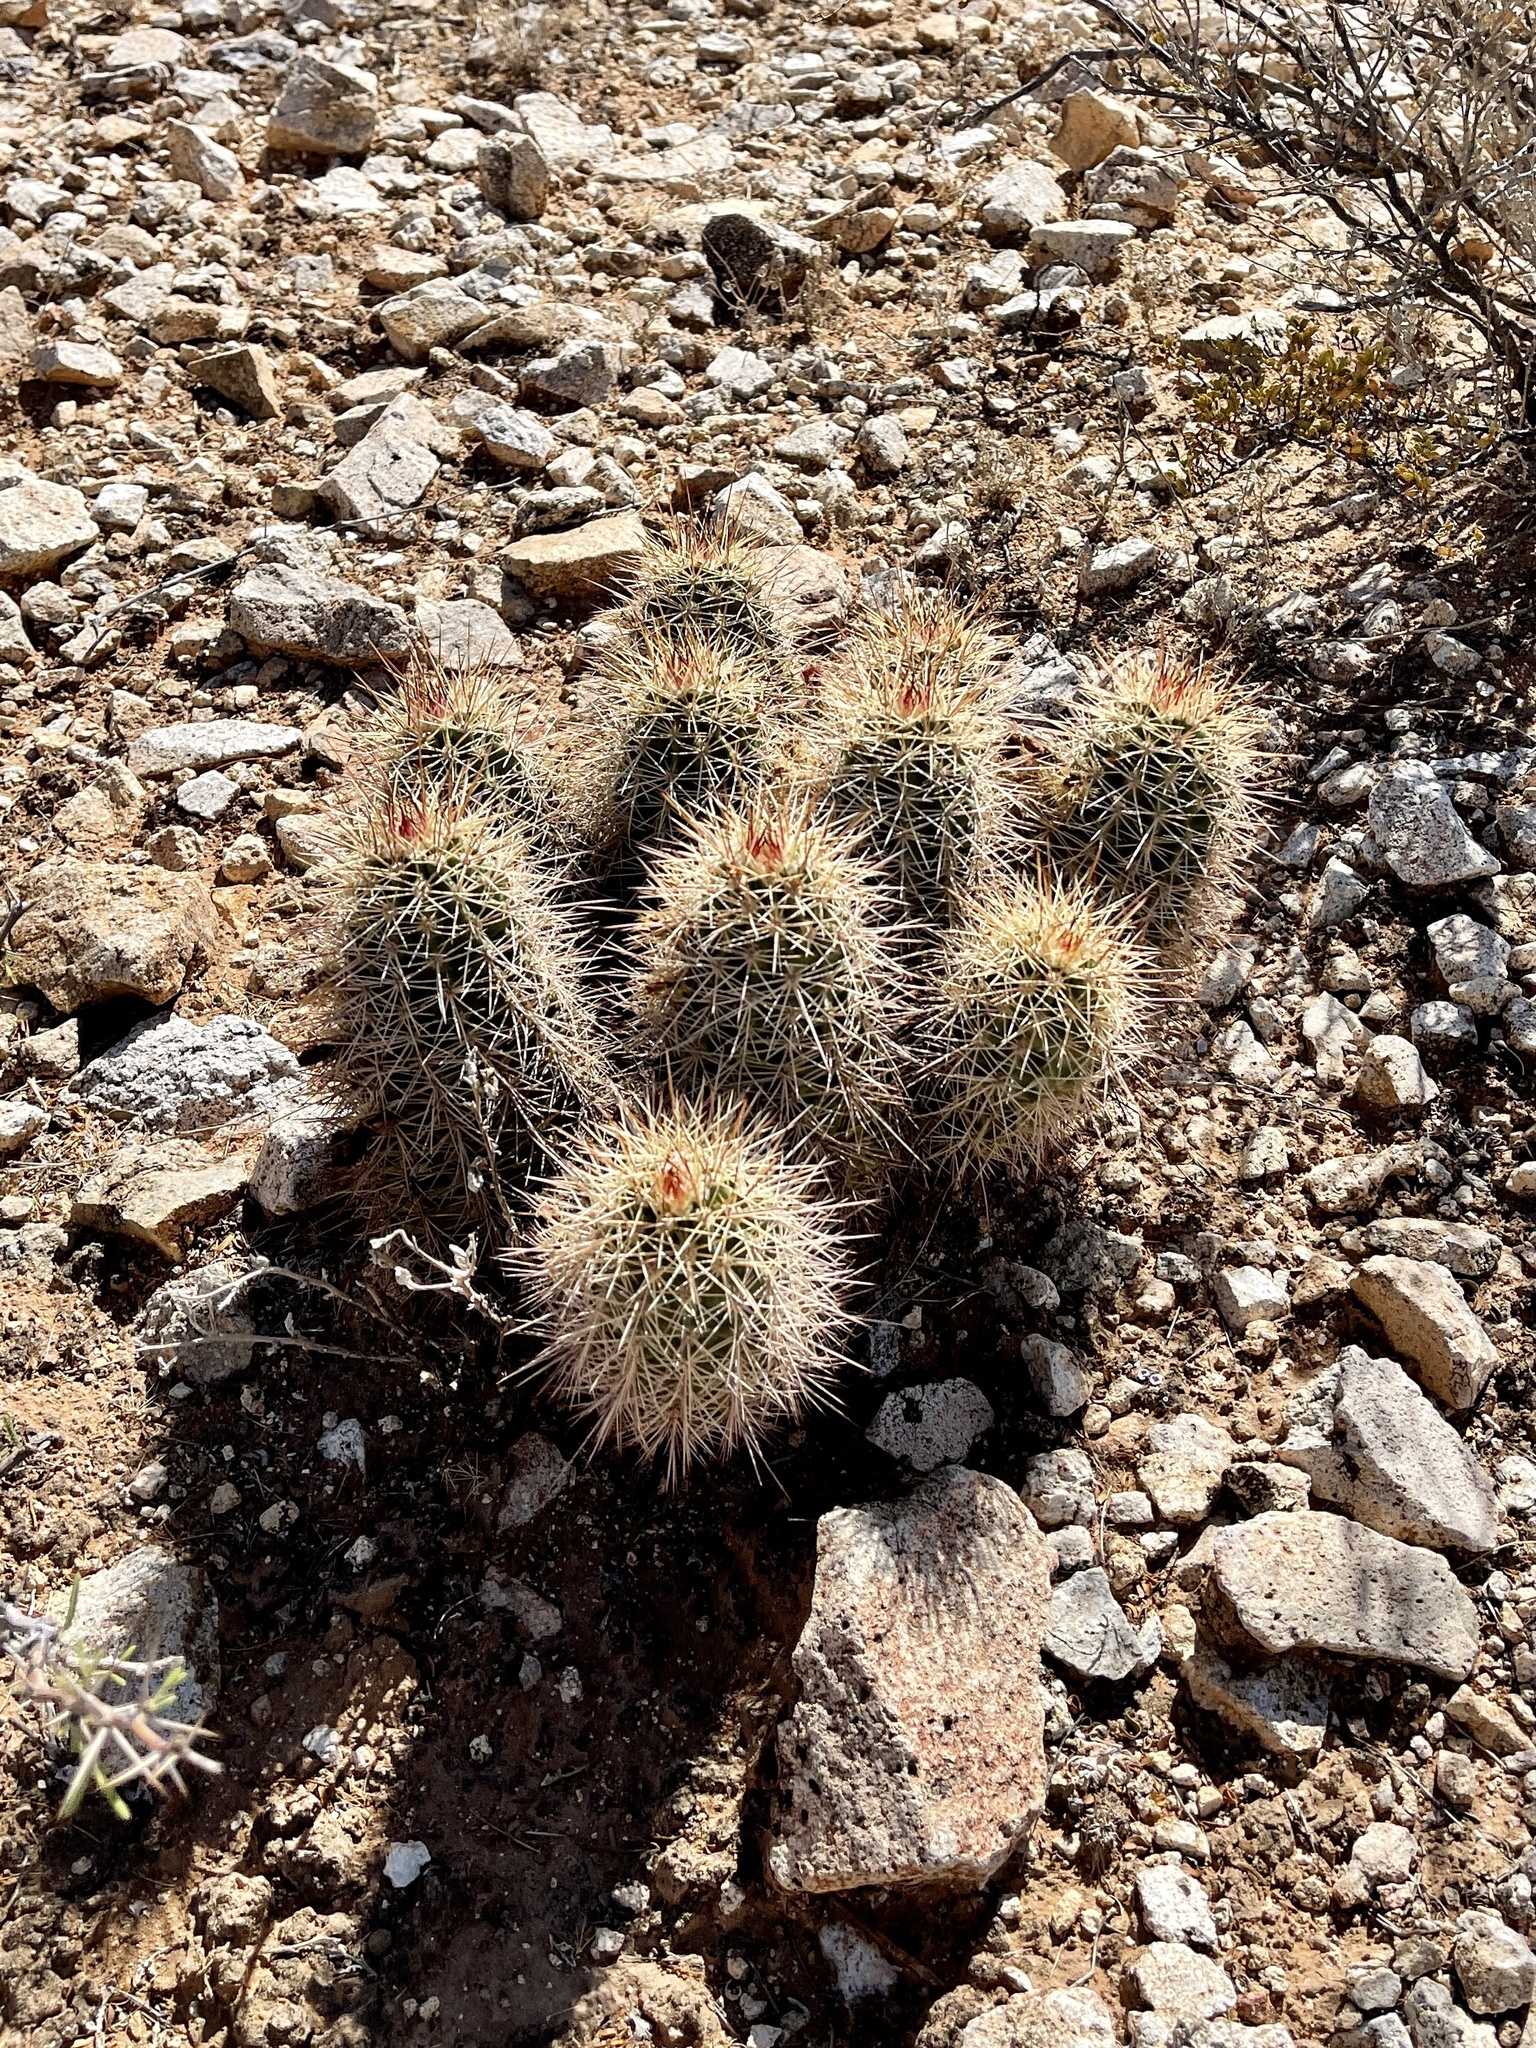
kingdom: Plantae
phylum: Tracheophyta
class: Magnoliopsida
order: Caryophyllales
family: Cactaceae
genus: Echinocereus
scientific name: Echinocereus coccineus
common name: Scarlet hedgehog cactus
